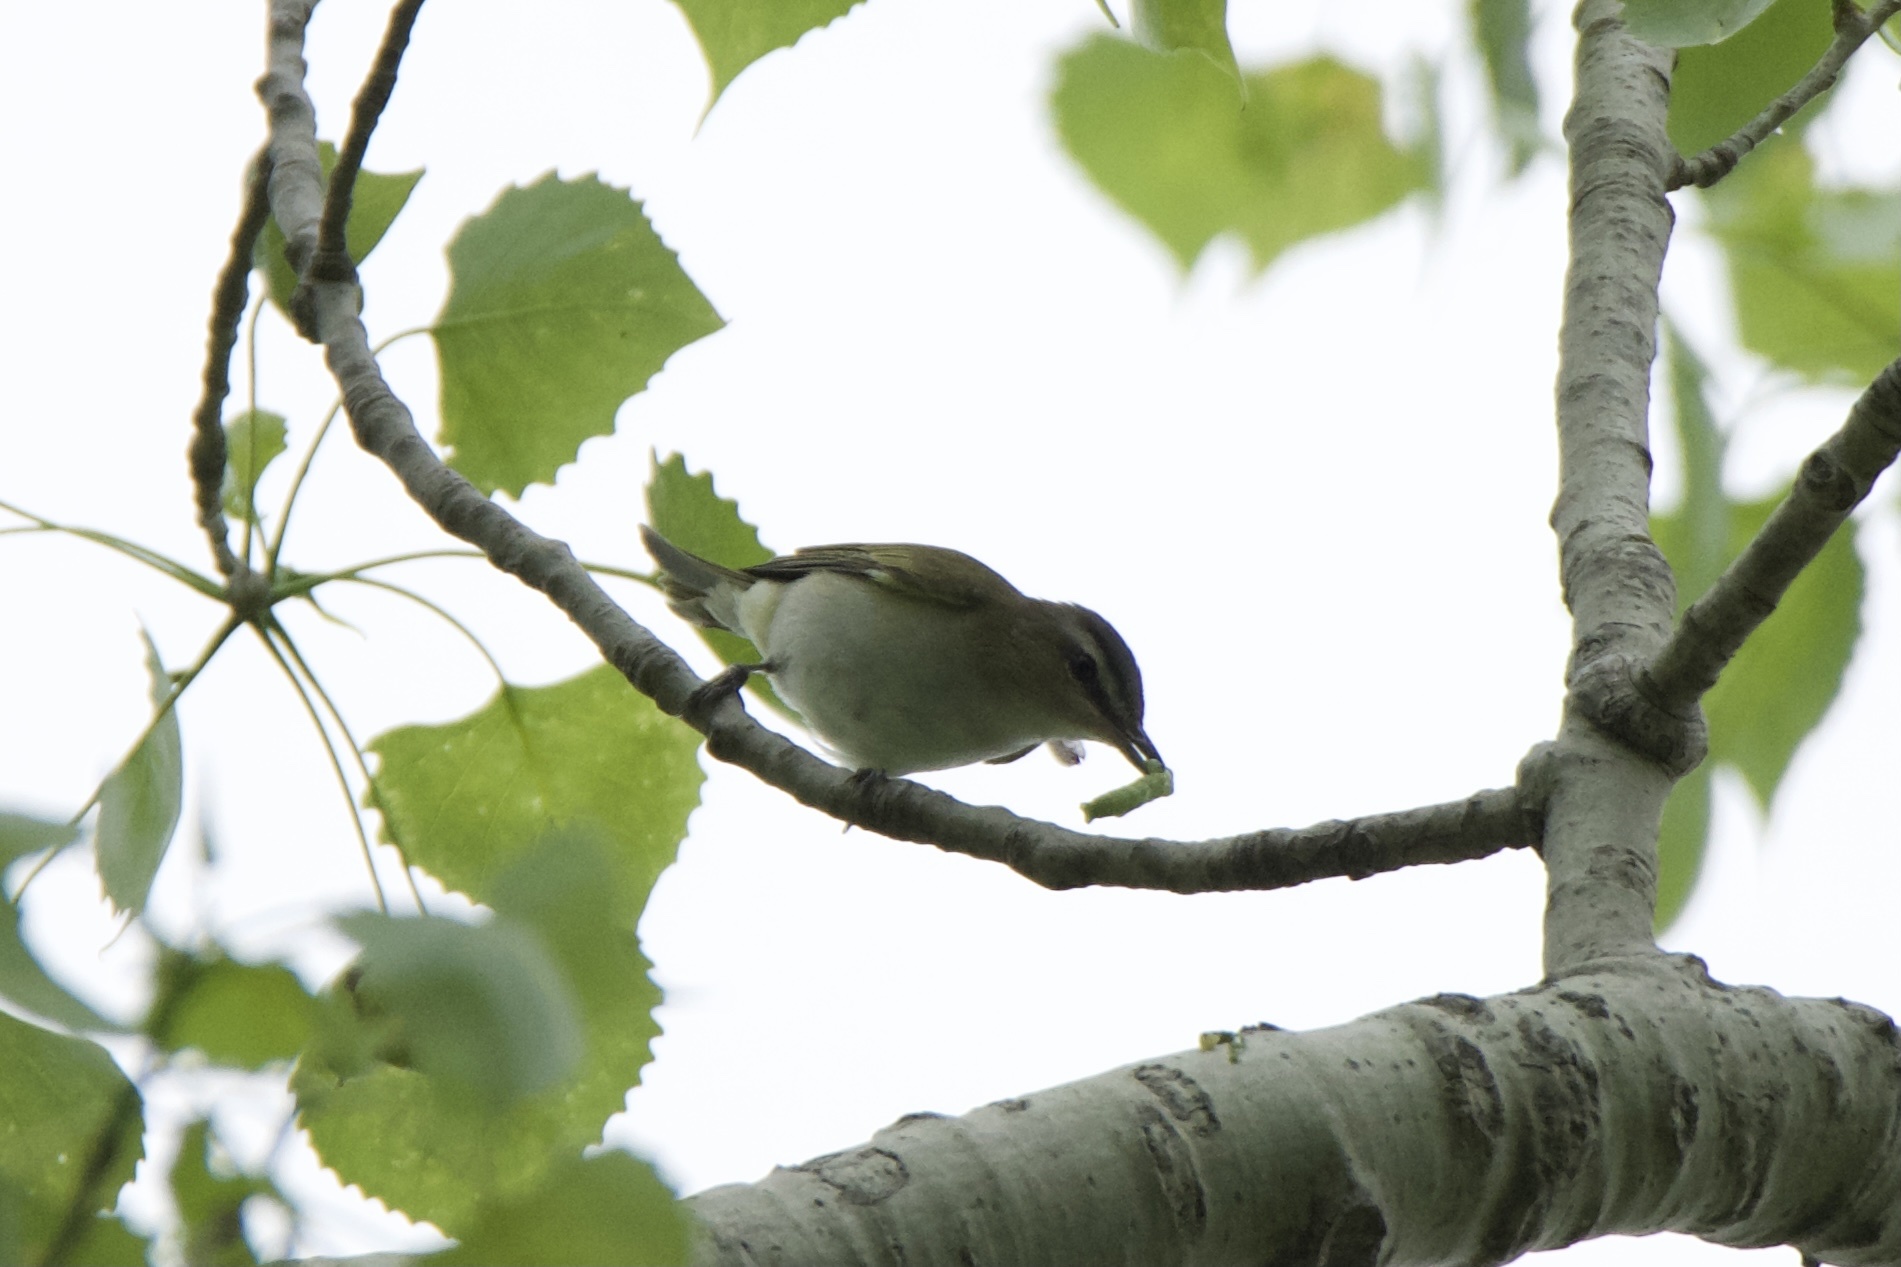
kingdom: Animalia
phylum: Chordata
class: Aves
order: Passeriformes
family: Vireonidae
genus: Vireo
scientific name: Vireo olivaceus
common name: Red-eyed vireo
